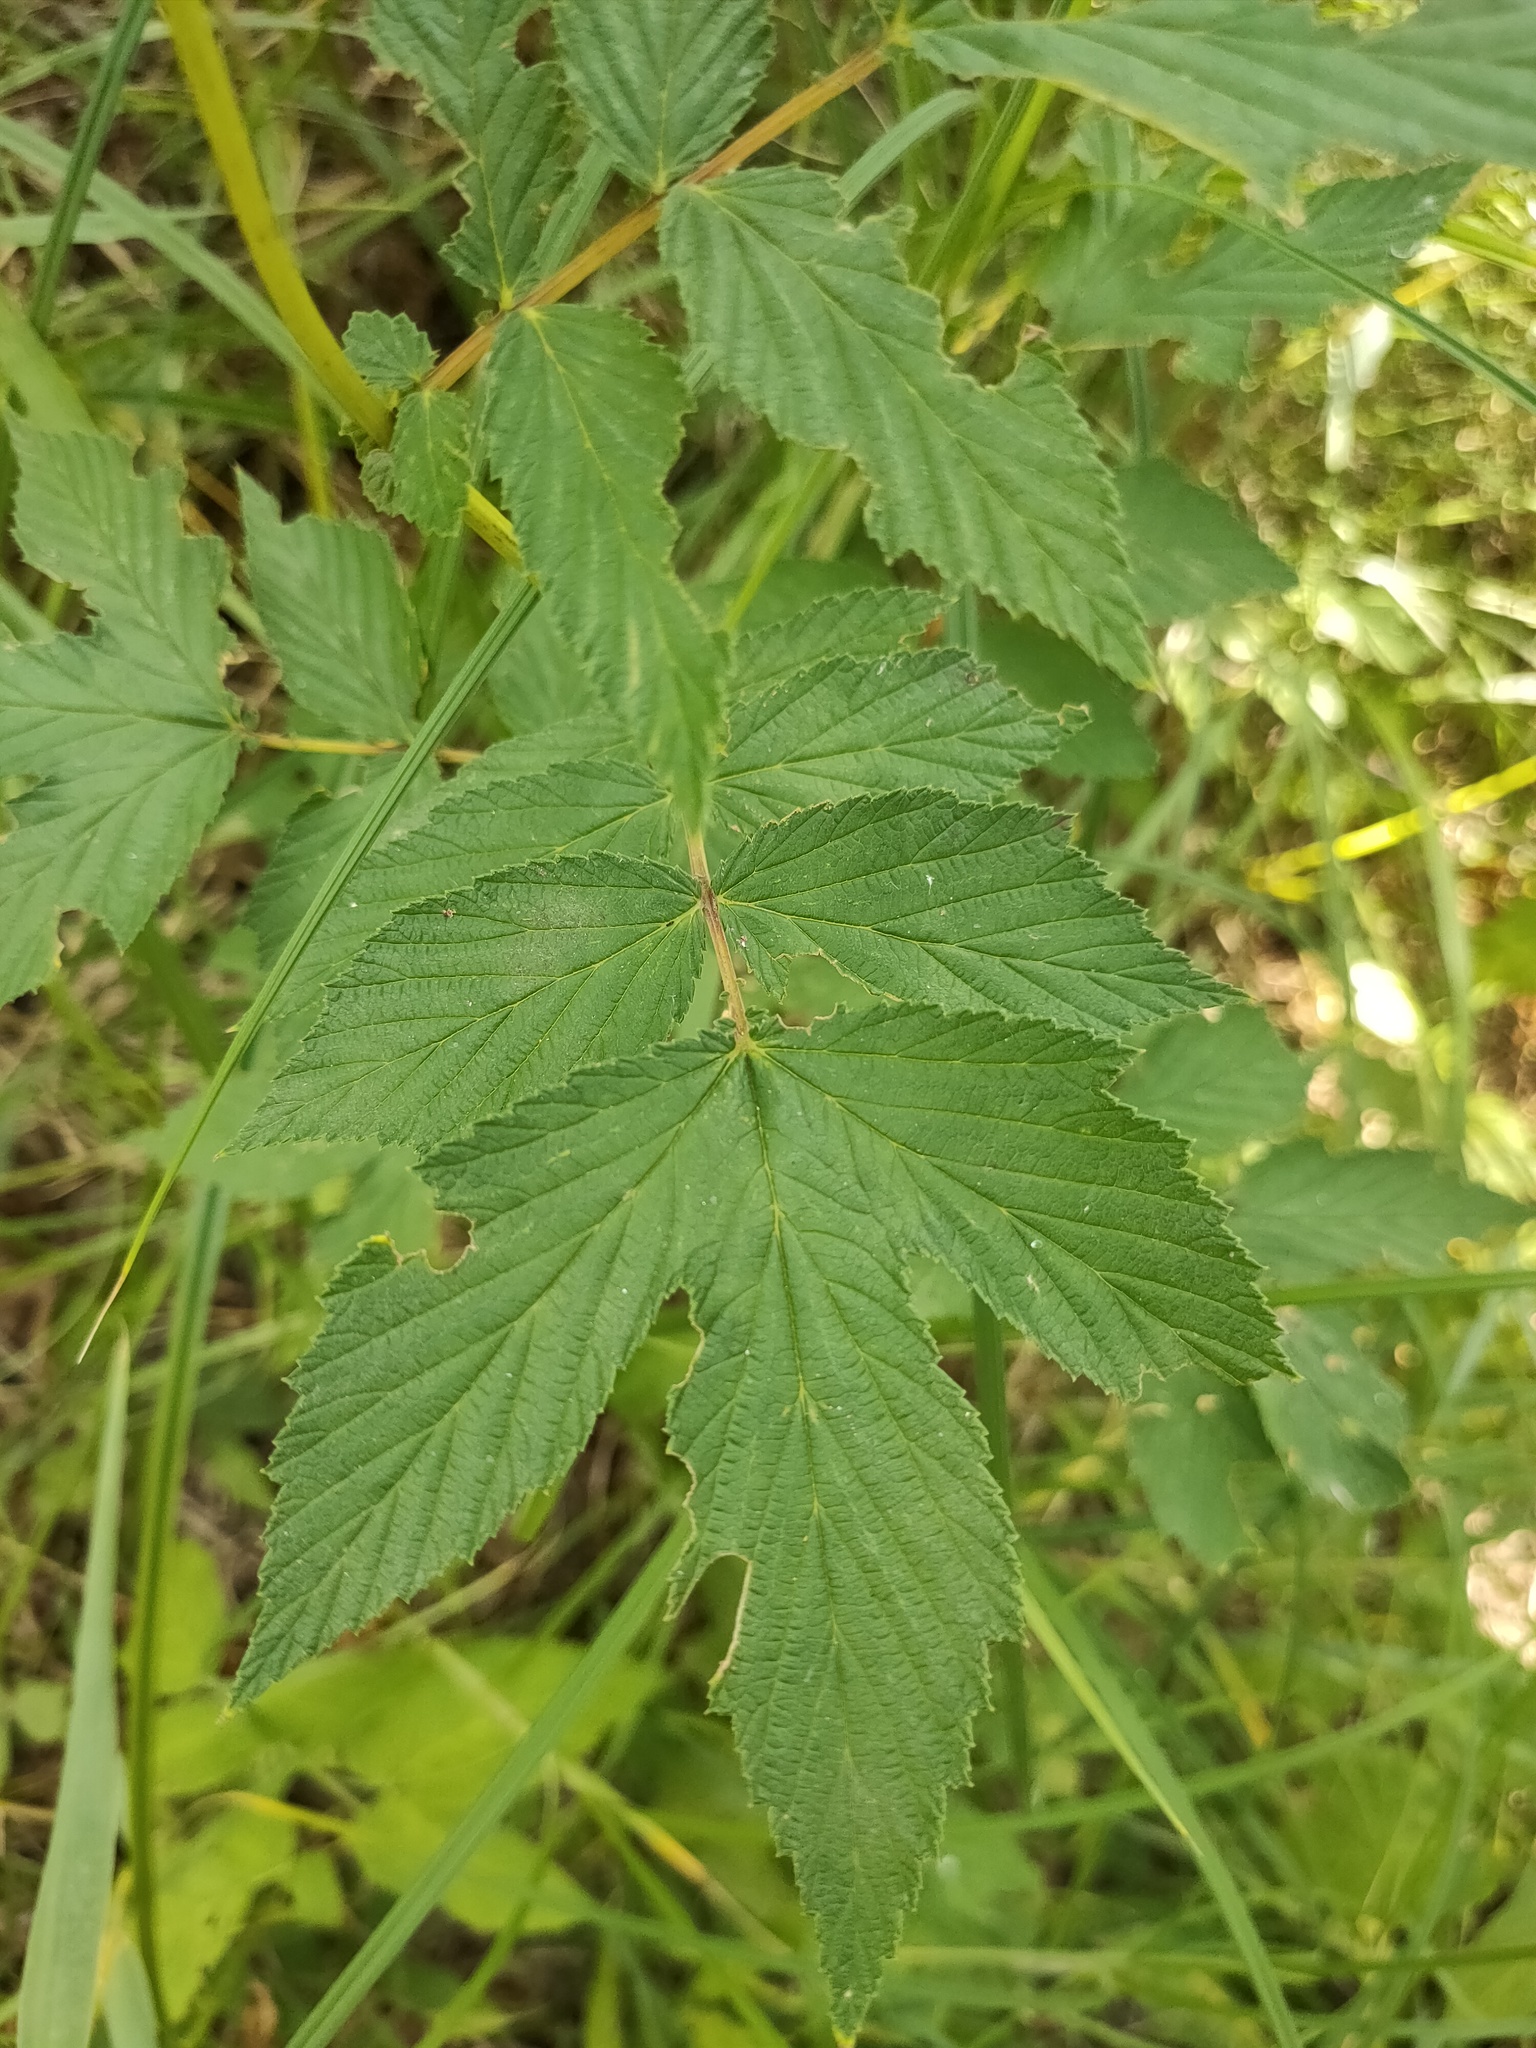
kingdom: Plantae
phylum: Tracheophyta
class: Magnoliopsida
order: Rosales
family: Rosaceae
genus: Filipendula
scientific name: Filipendula ulmaria
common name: Meadowsweet
